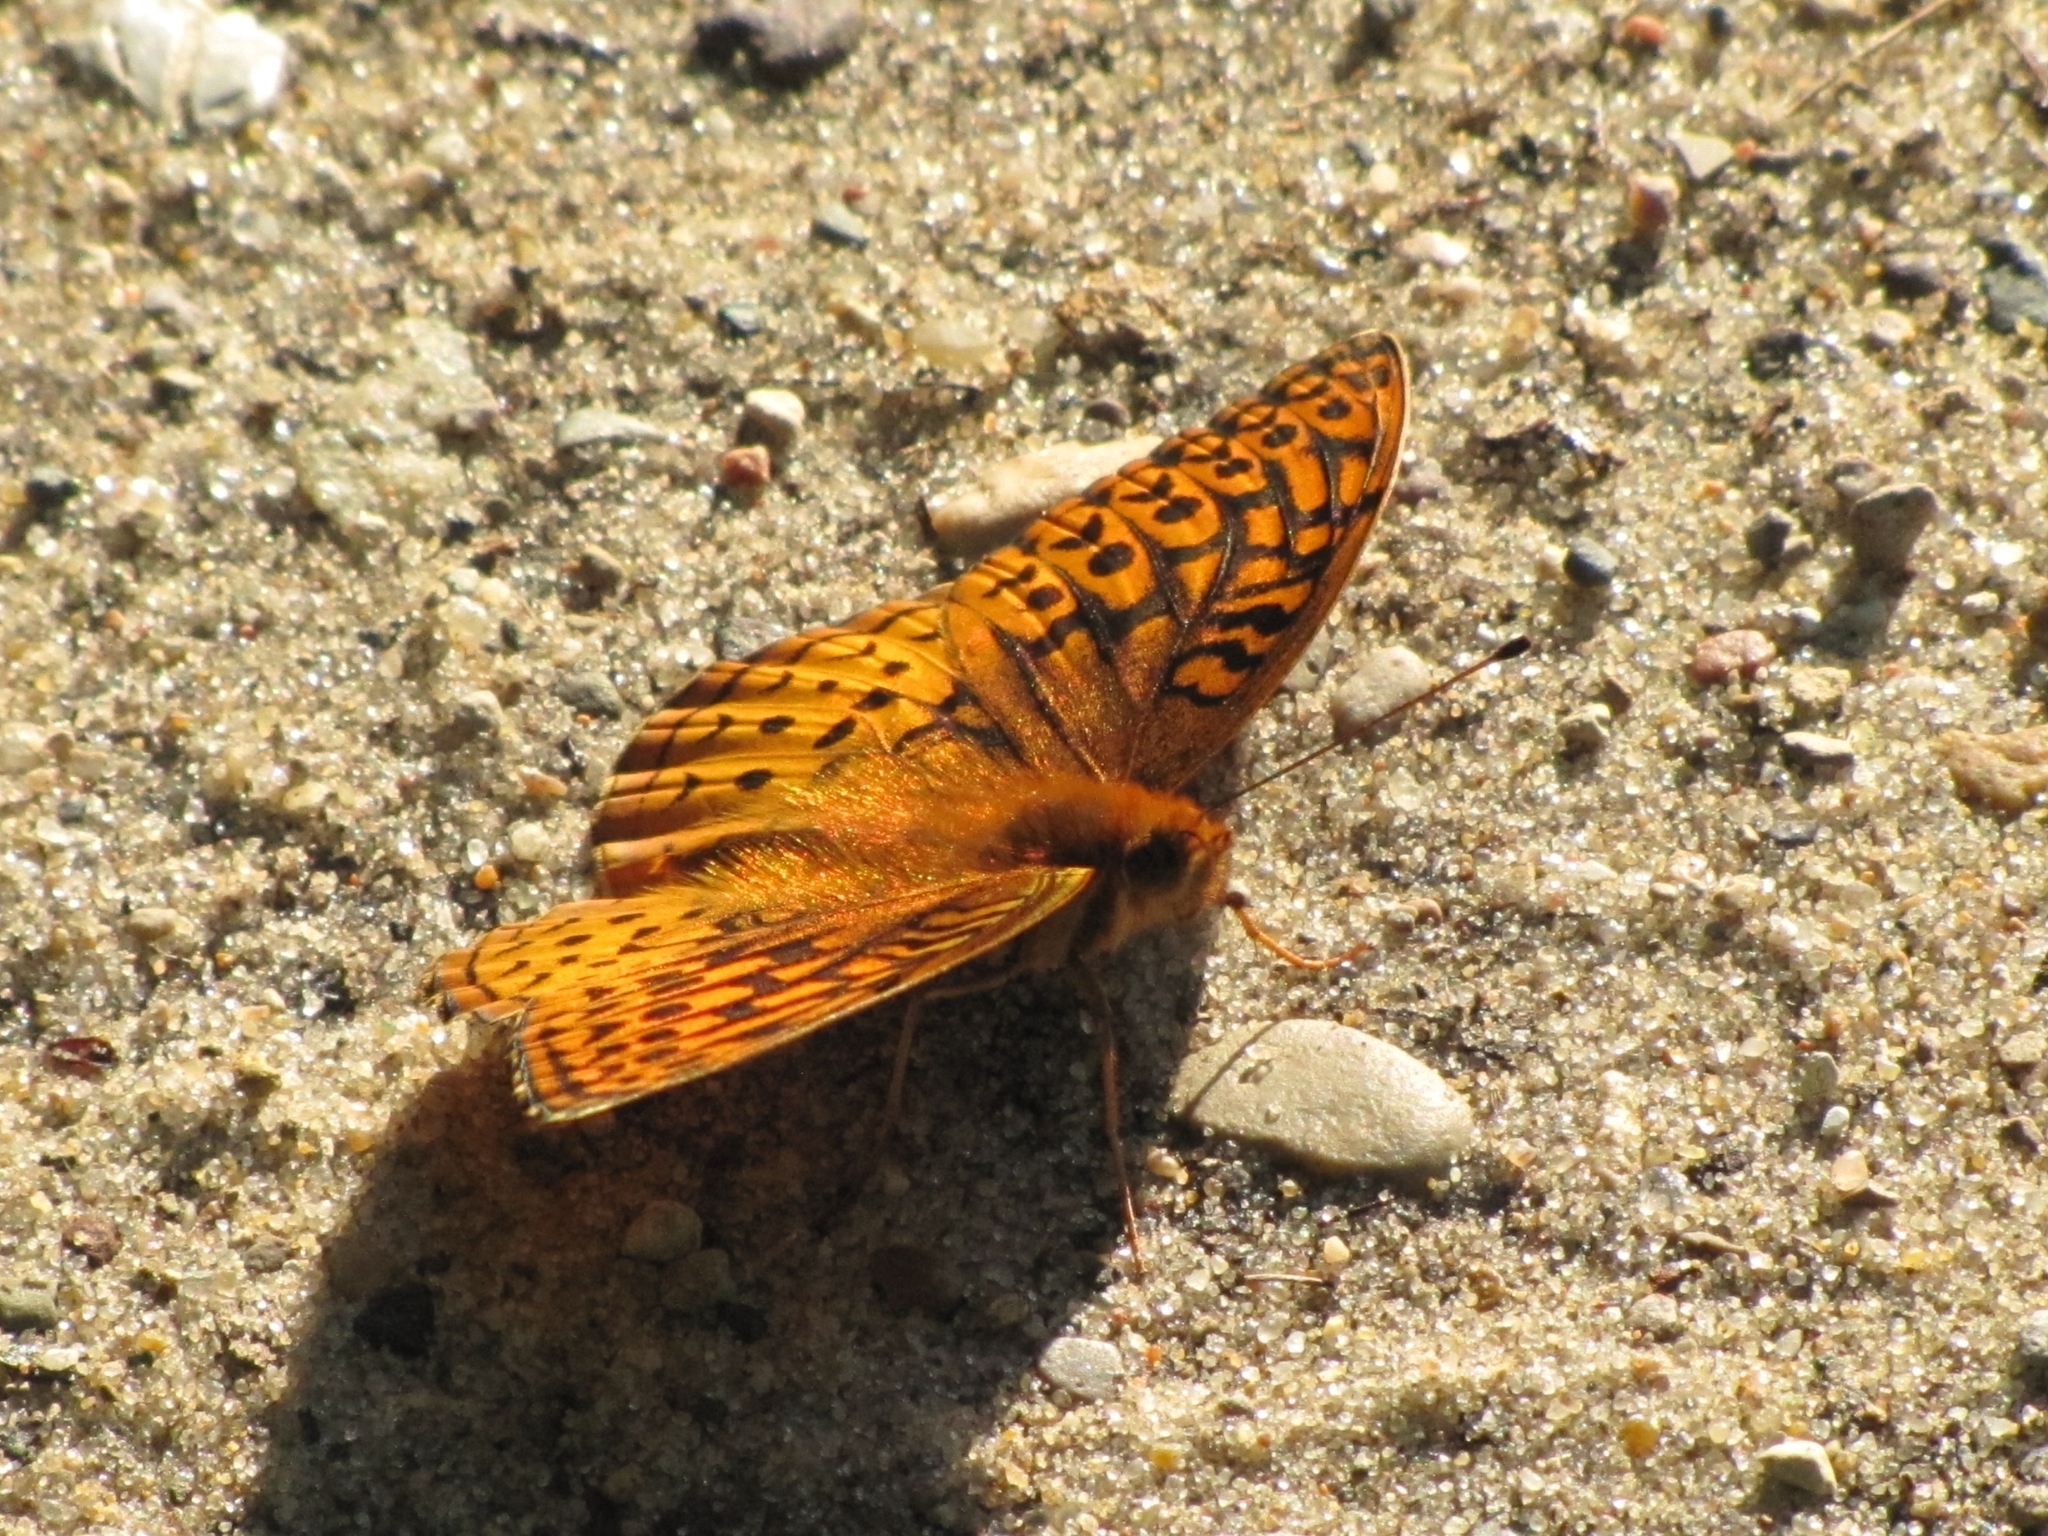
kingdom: Animalia
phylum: Arthropoda
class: Insecta
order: Lepidoptera
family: Nymphalidae
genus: Speyeria
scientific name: Speyeria cybele
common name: Great spangled fritillary
